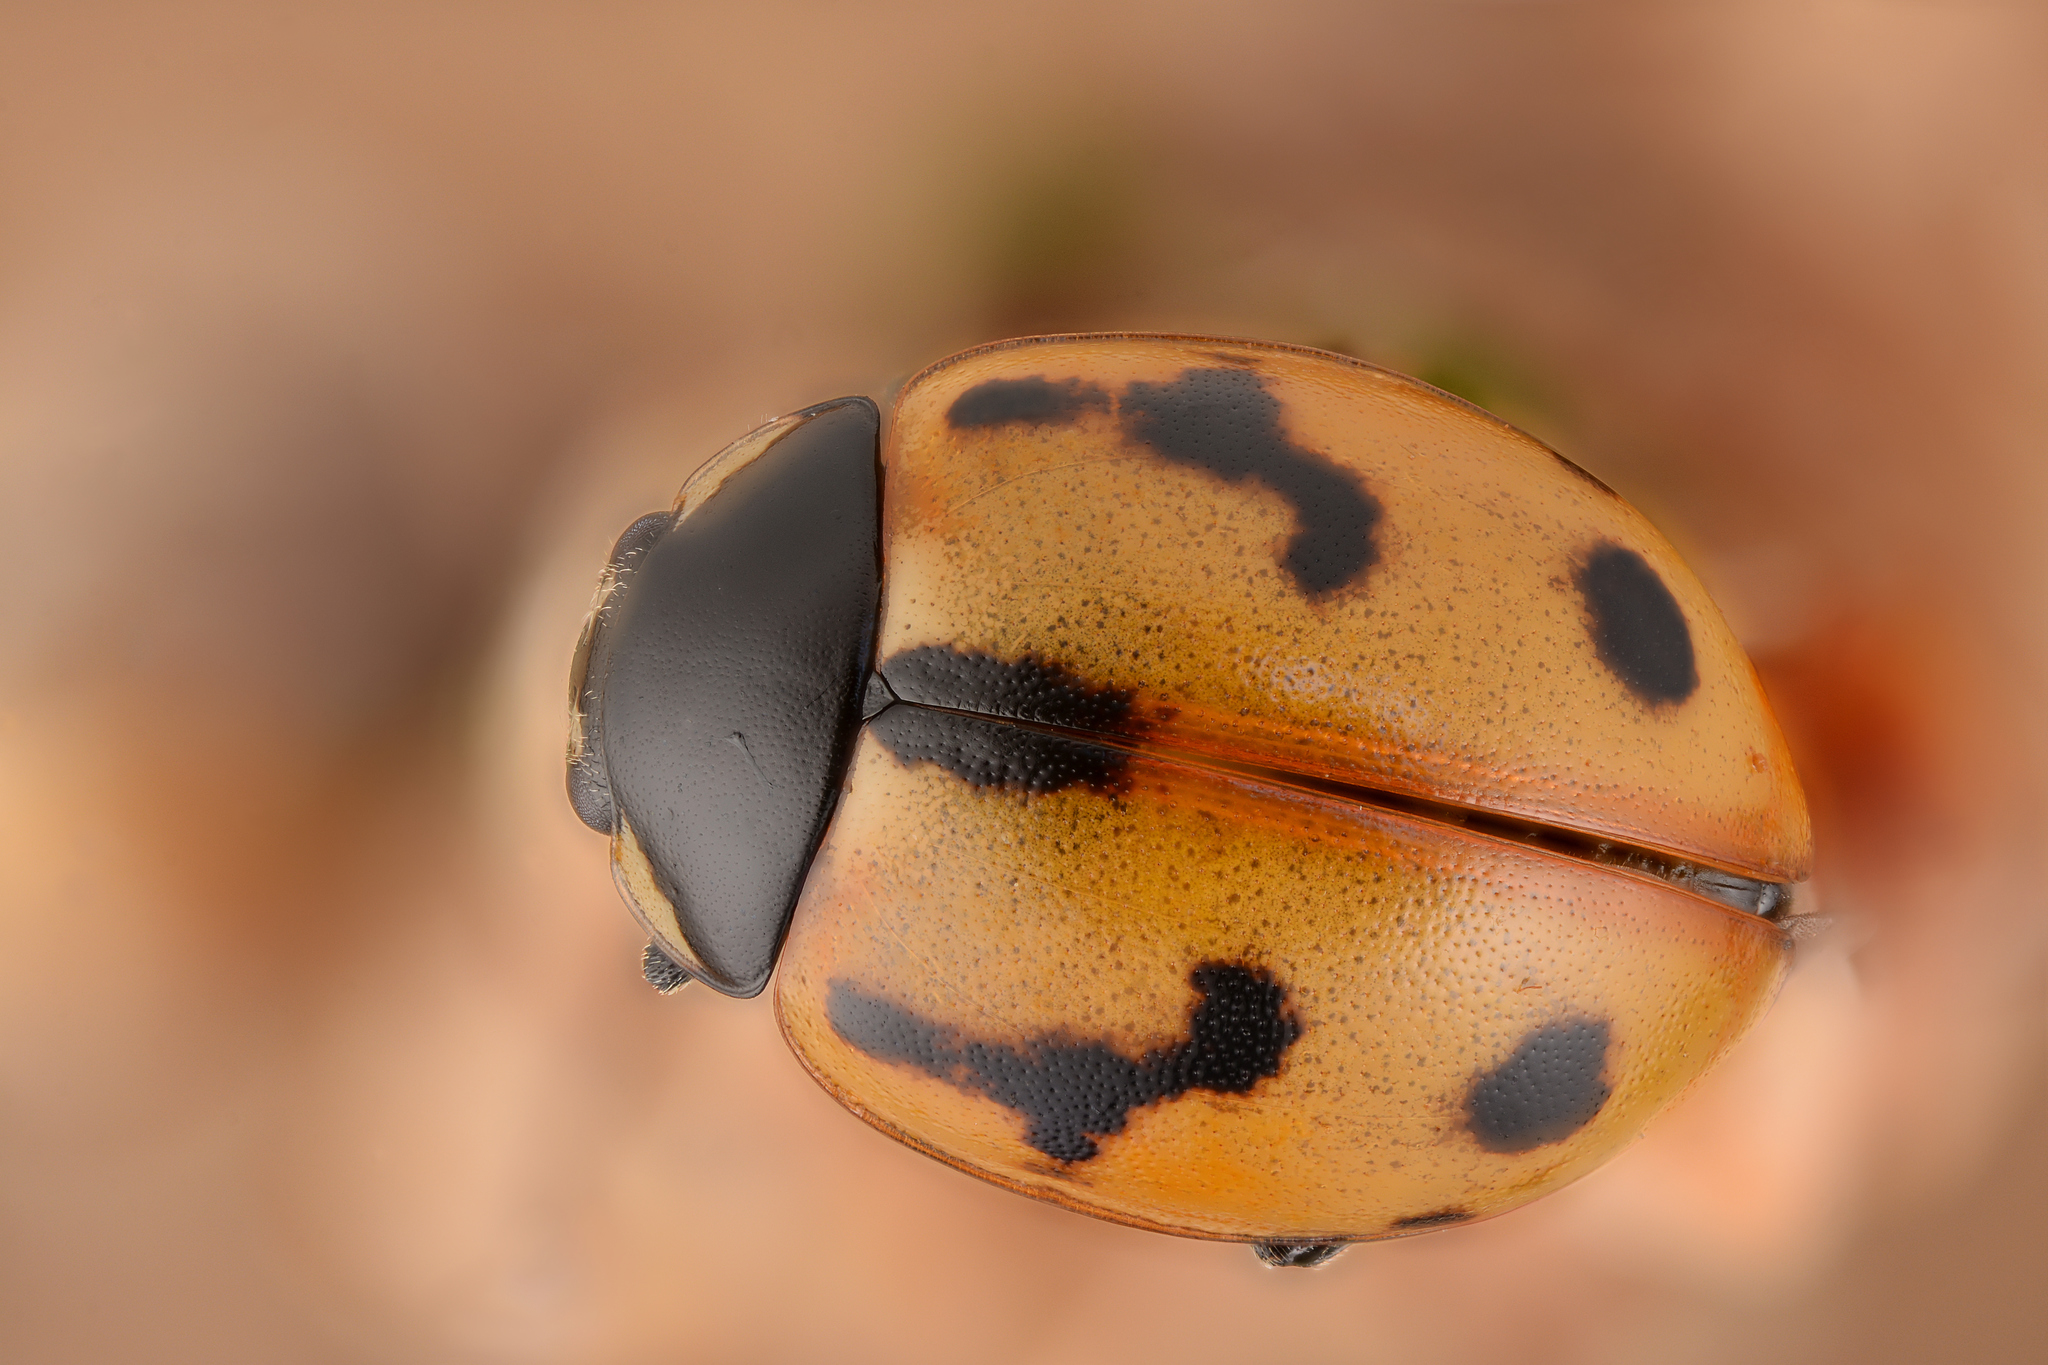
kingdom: Animalia
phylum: Arthropoda
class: Insecta
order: Coleoptera
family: Coccinellidae
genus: Coccinella
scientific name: Coccinella hieroglyphica
